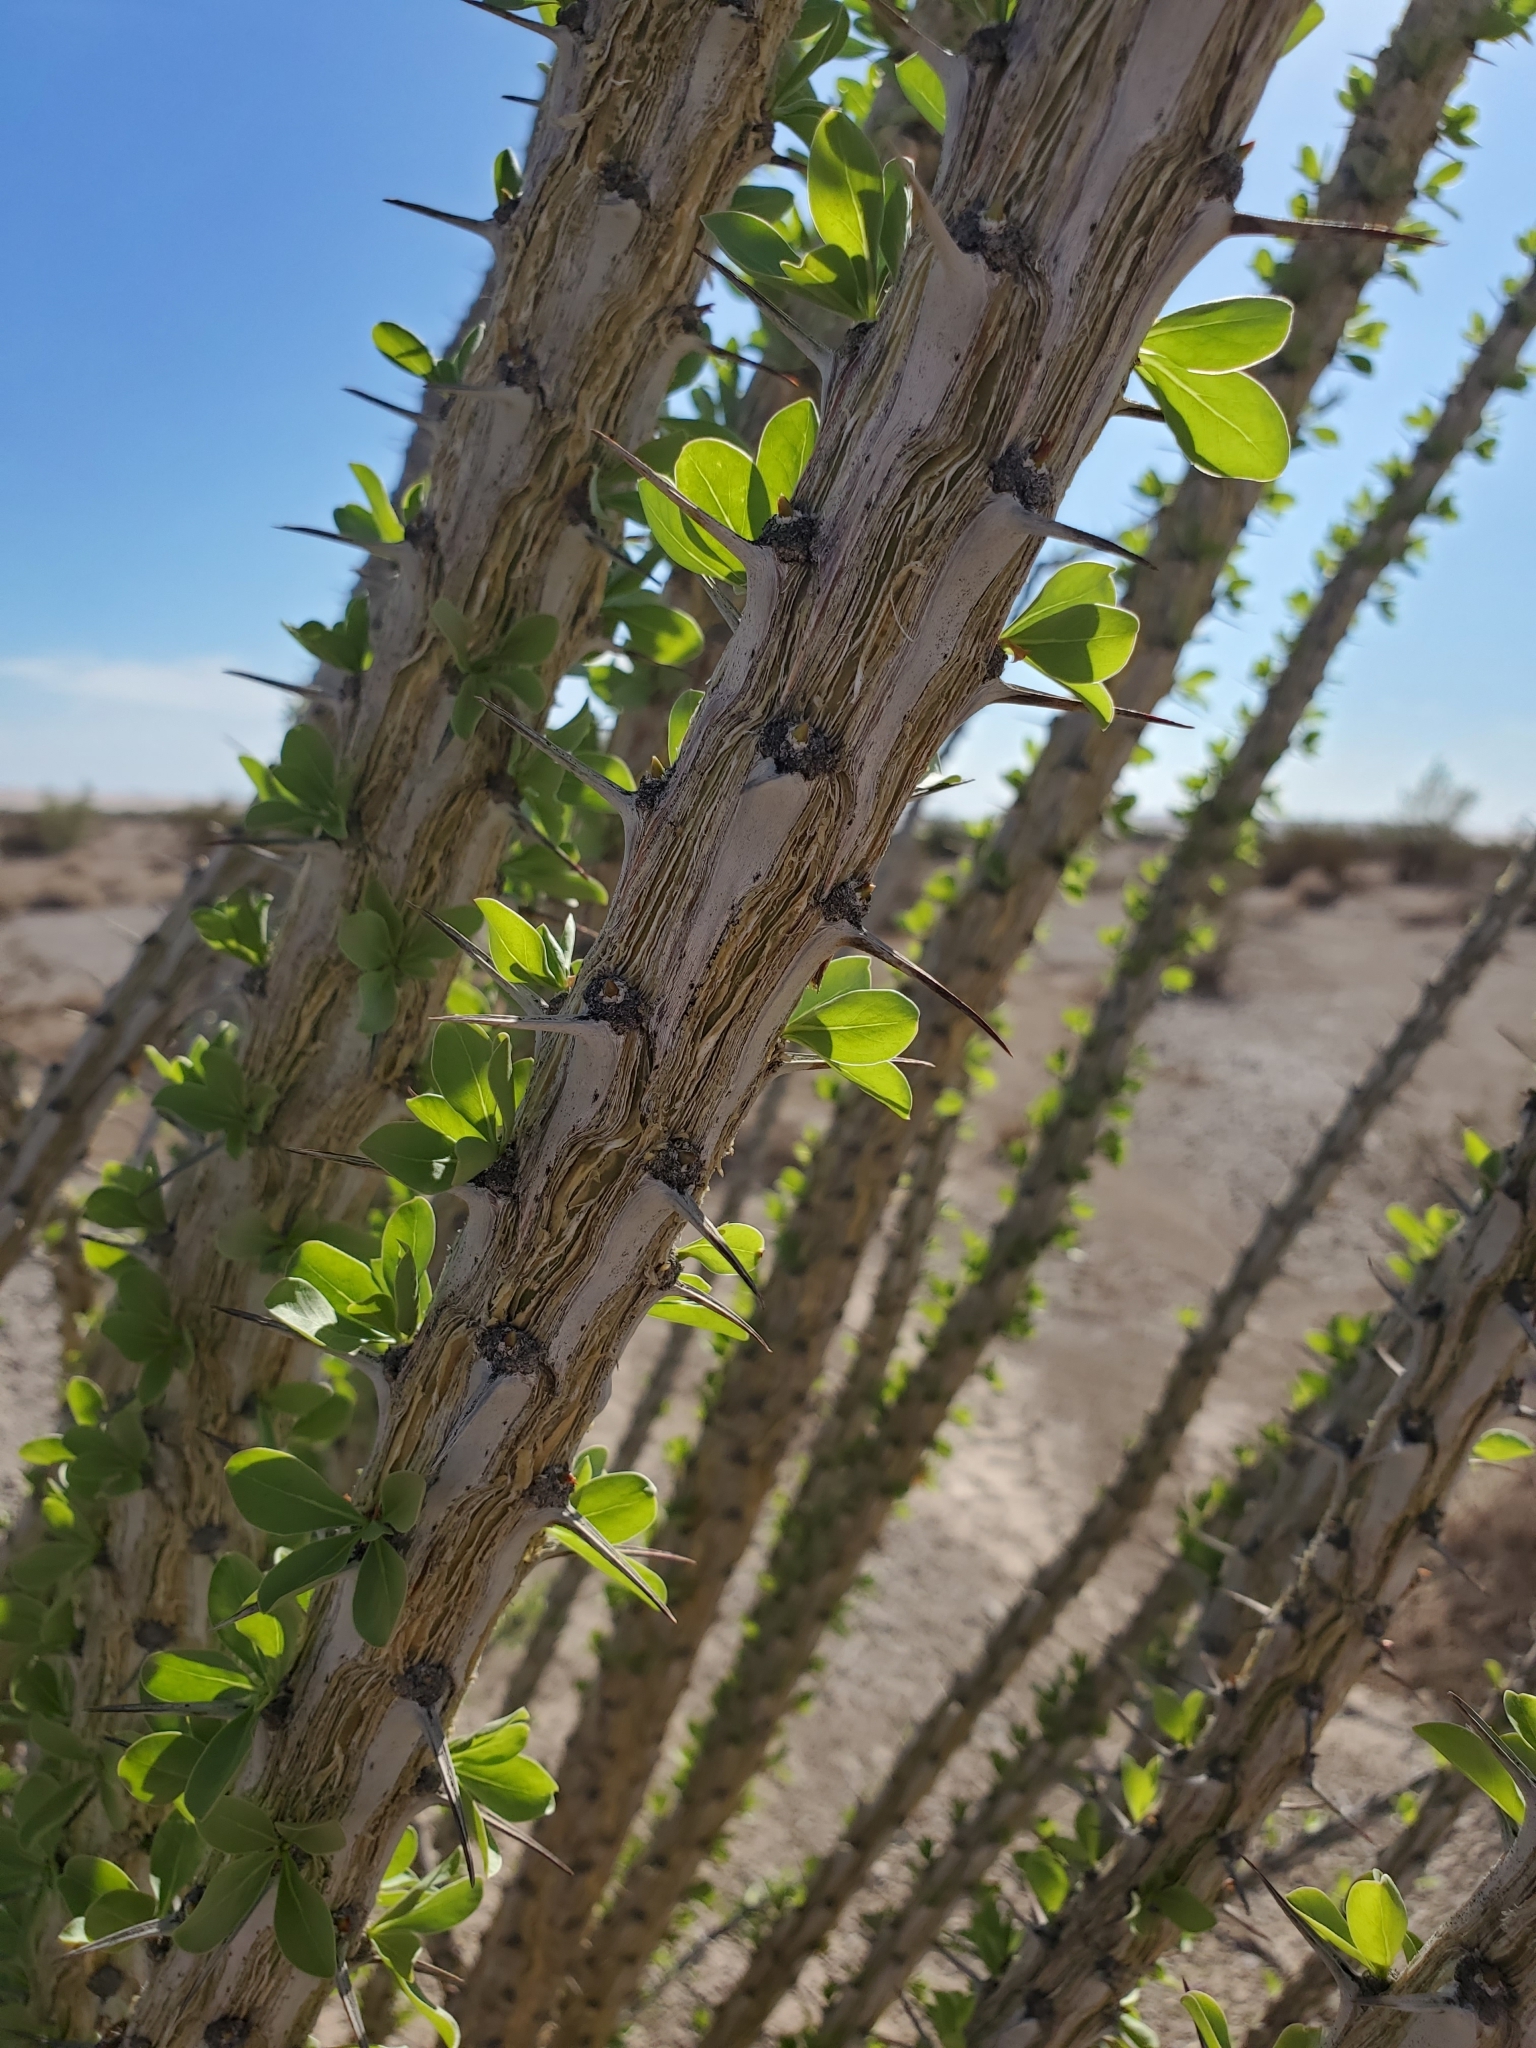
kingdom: Plantae
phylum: Tracheophyta
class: Magnoliopsida
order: Ericales
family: Fouquieriaceae
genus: Fouquieria
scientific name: Fouquieria splendens
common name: Vine-cactus
